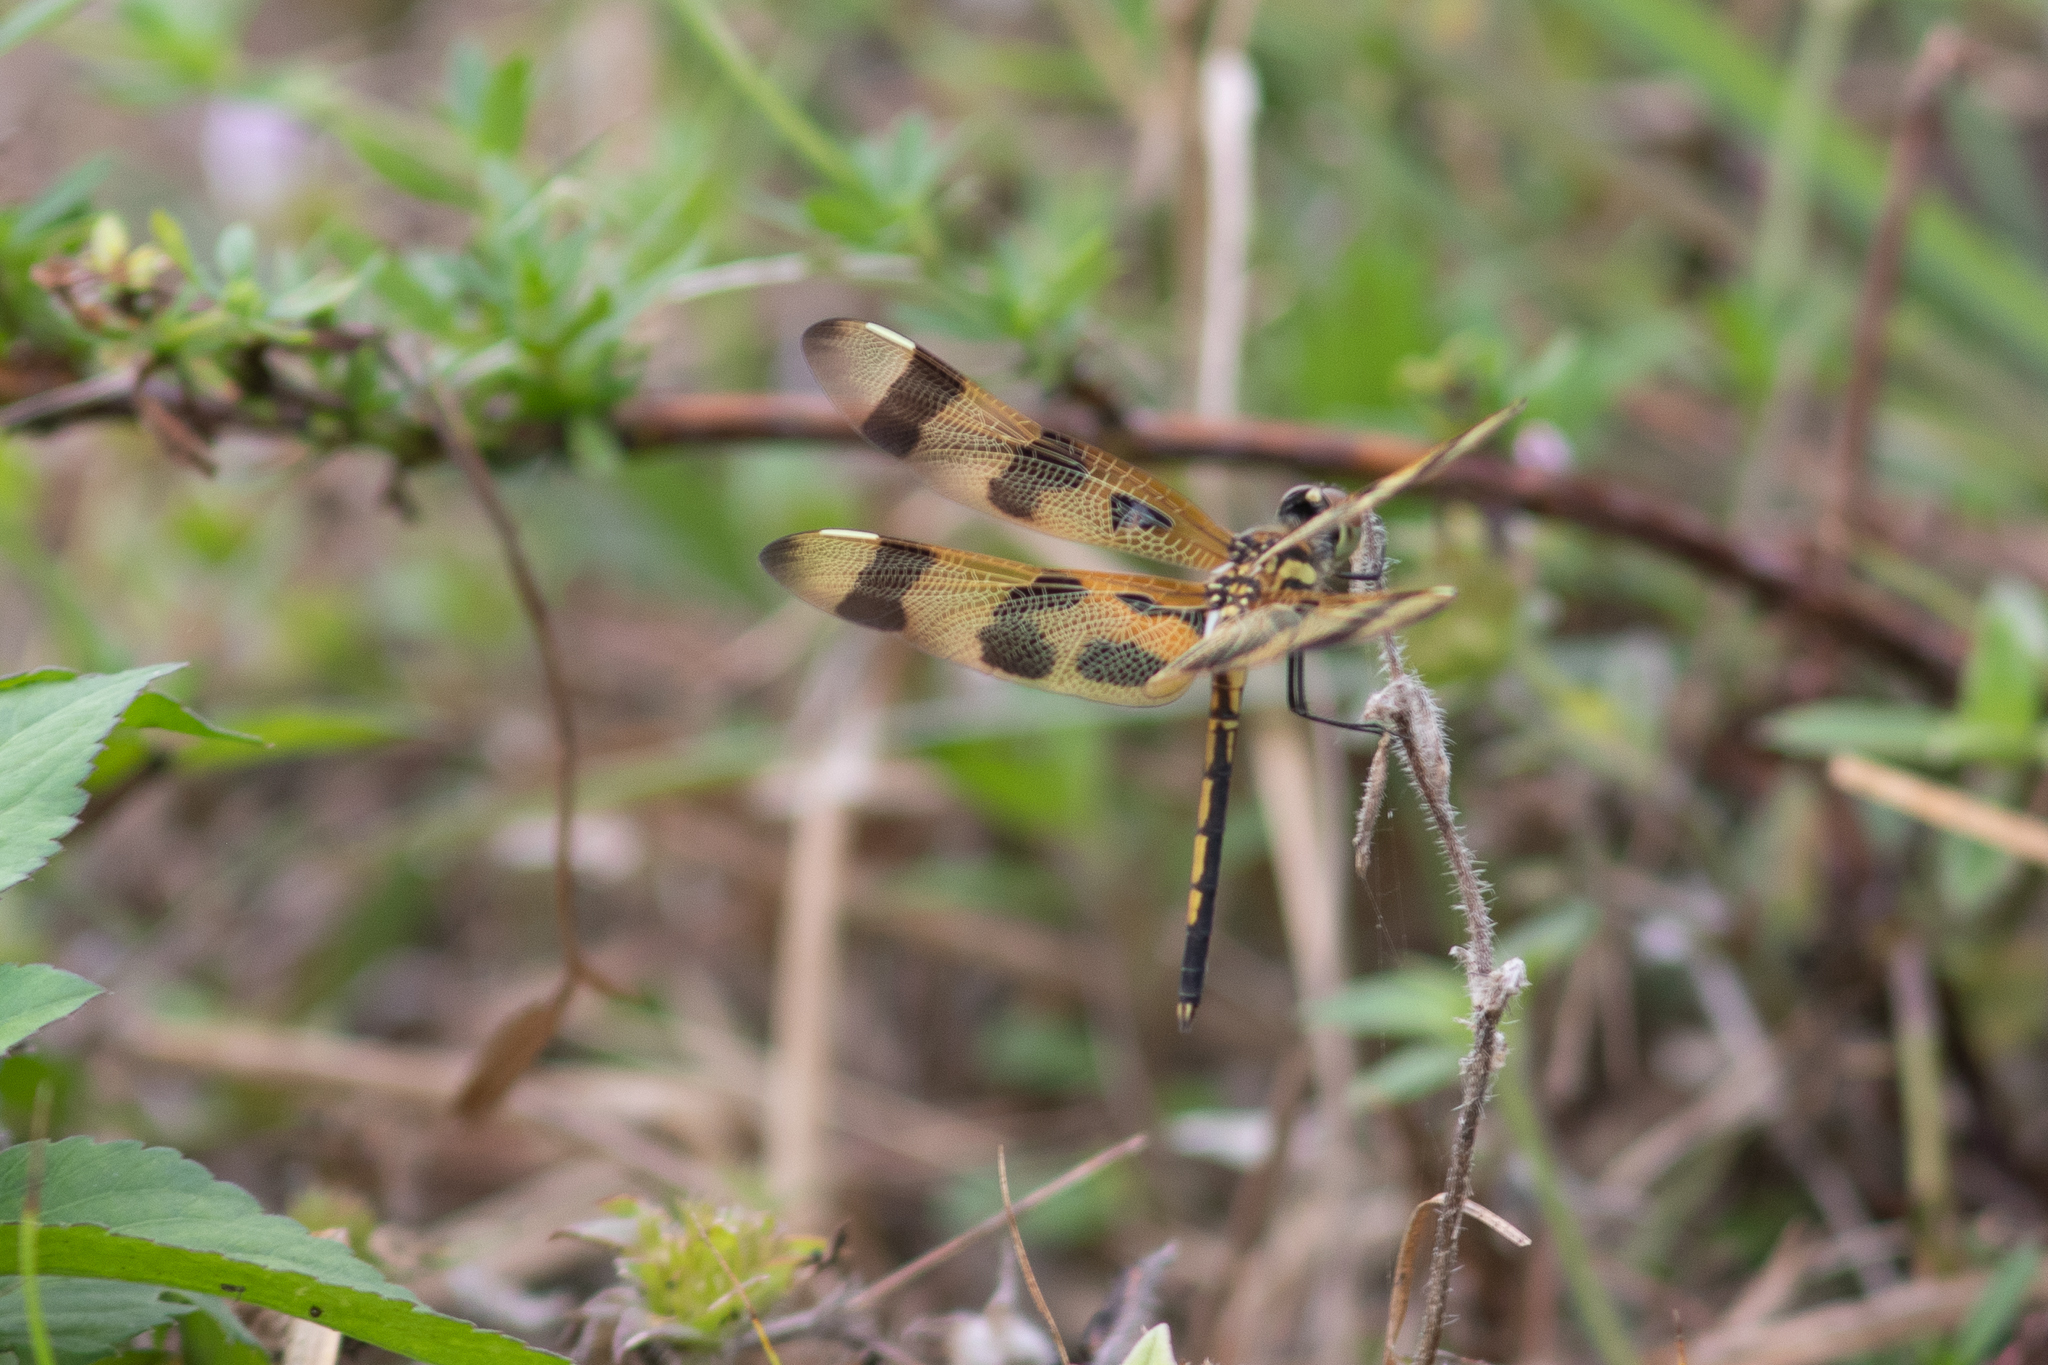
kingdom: Animalia
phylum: Arthropoda
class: Insecta
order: Odonata
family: Libellulidae
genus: Celithemis
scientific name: Celithemis eponina
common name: Halloween pennant
